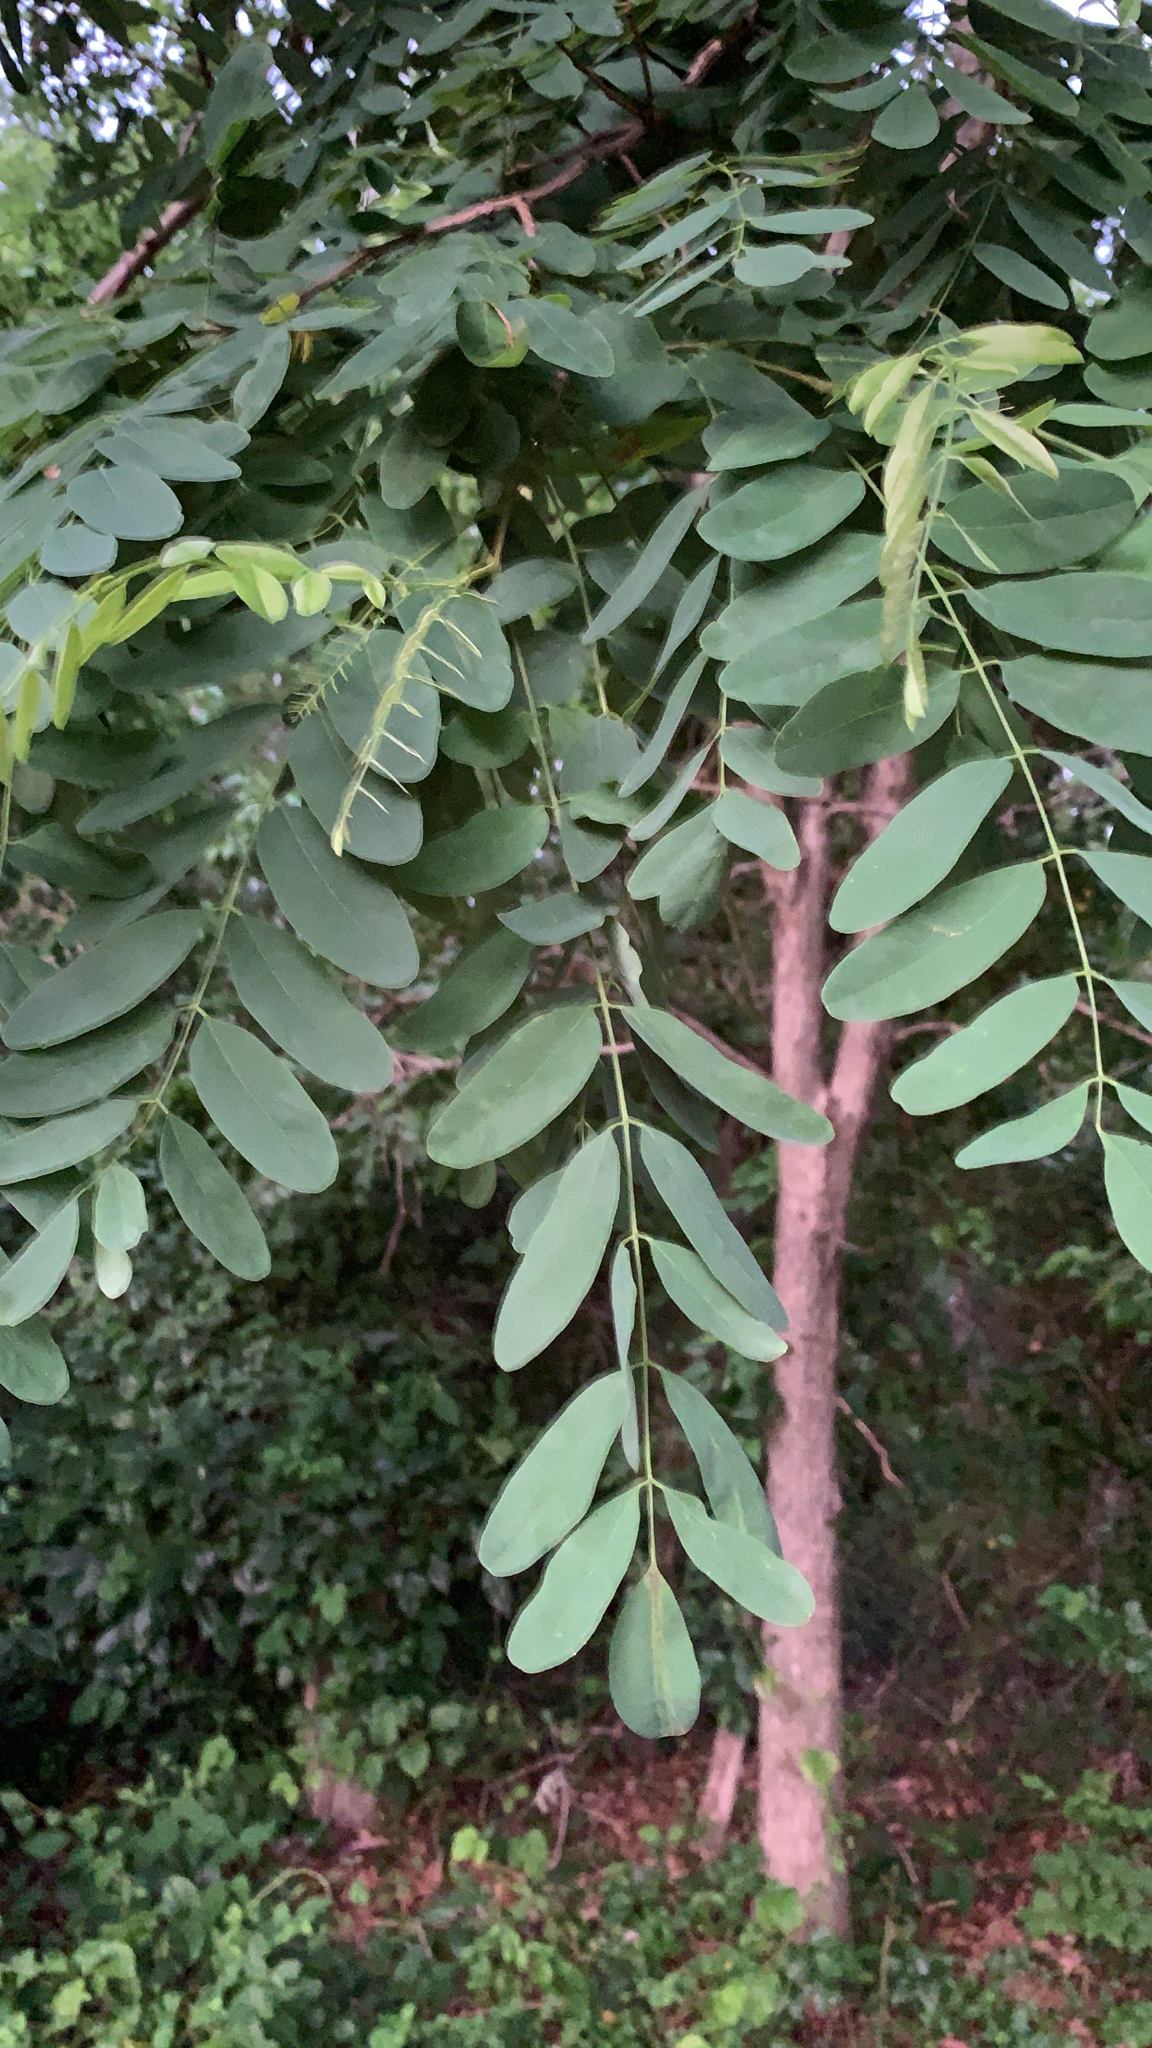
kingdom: Plantae
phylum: Tracheophyta
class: Magnoliopsida
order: Fabales
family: Fabaceae
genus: Robinia
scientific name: Robinia pseudoacacia
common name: Black locust
